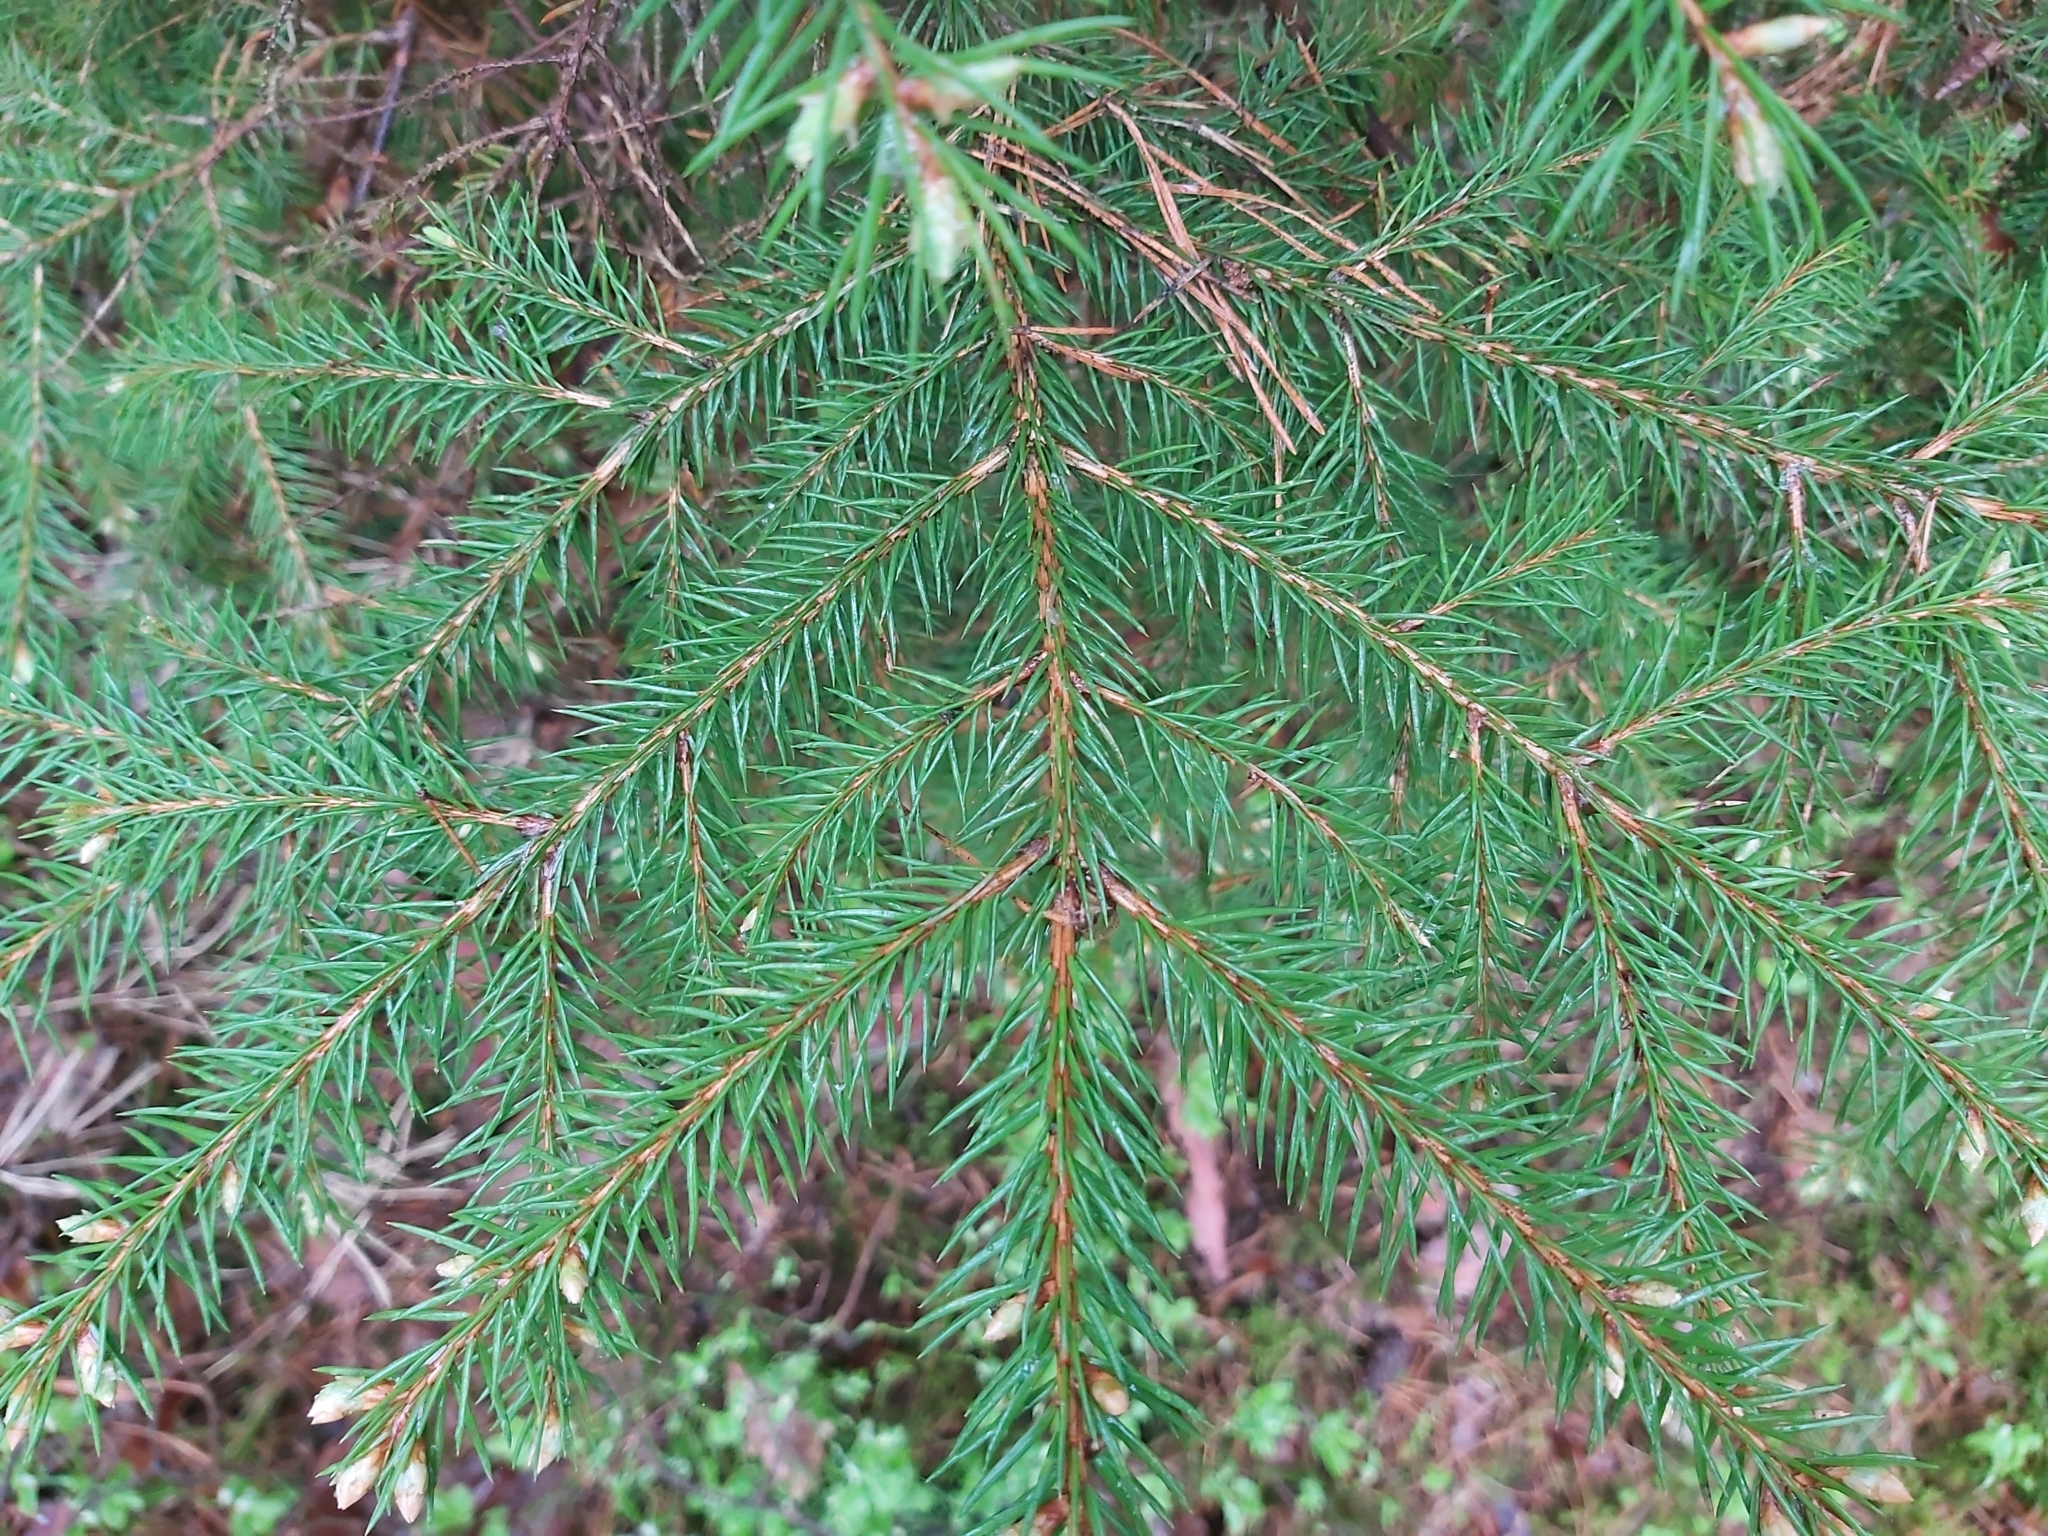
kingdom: Plantae
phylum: Tracheophyta
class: Pinopsida
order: Pinales
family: Pinaceae
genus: Picea
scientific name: Picea abies
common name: Norway spruce
